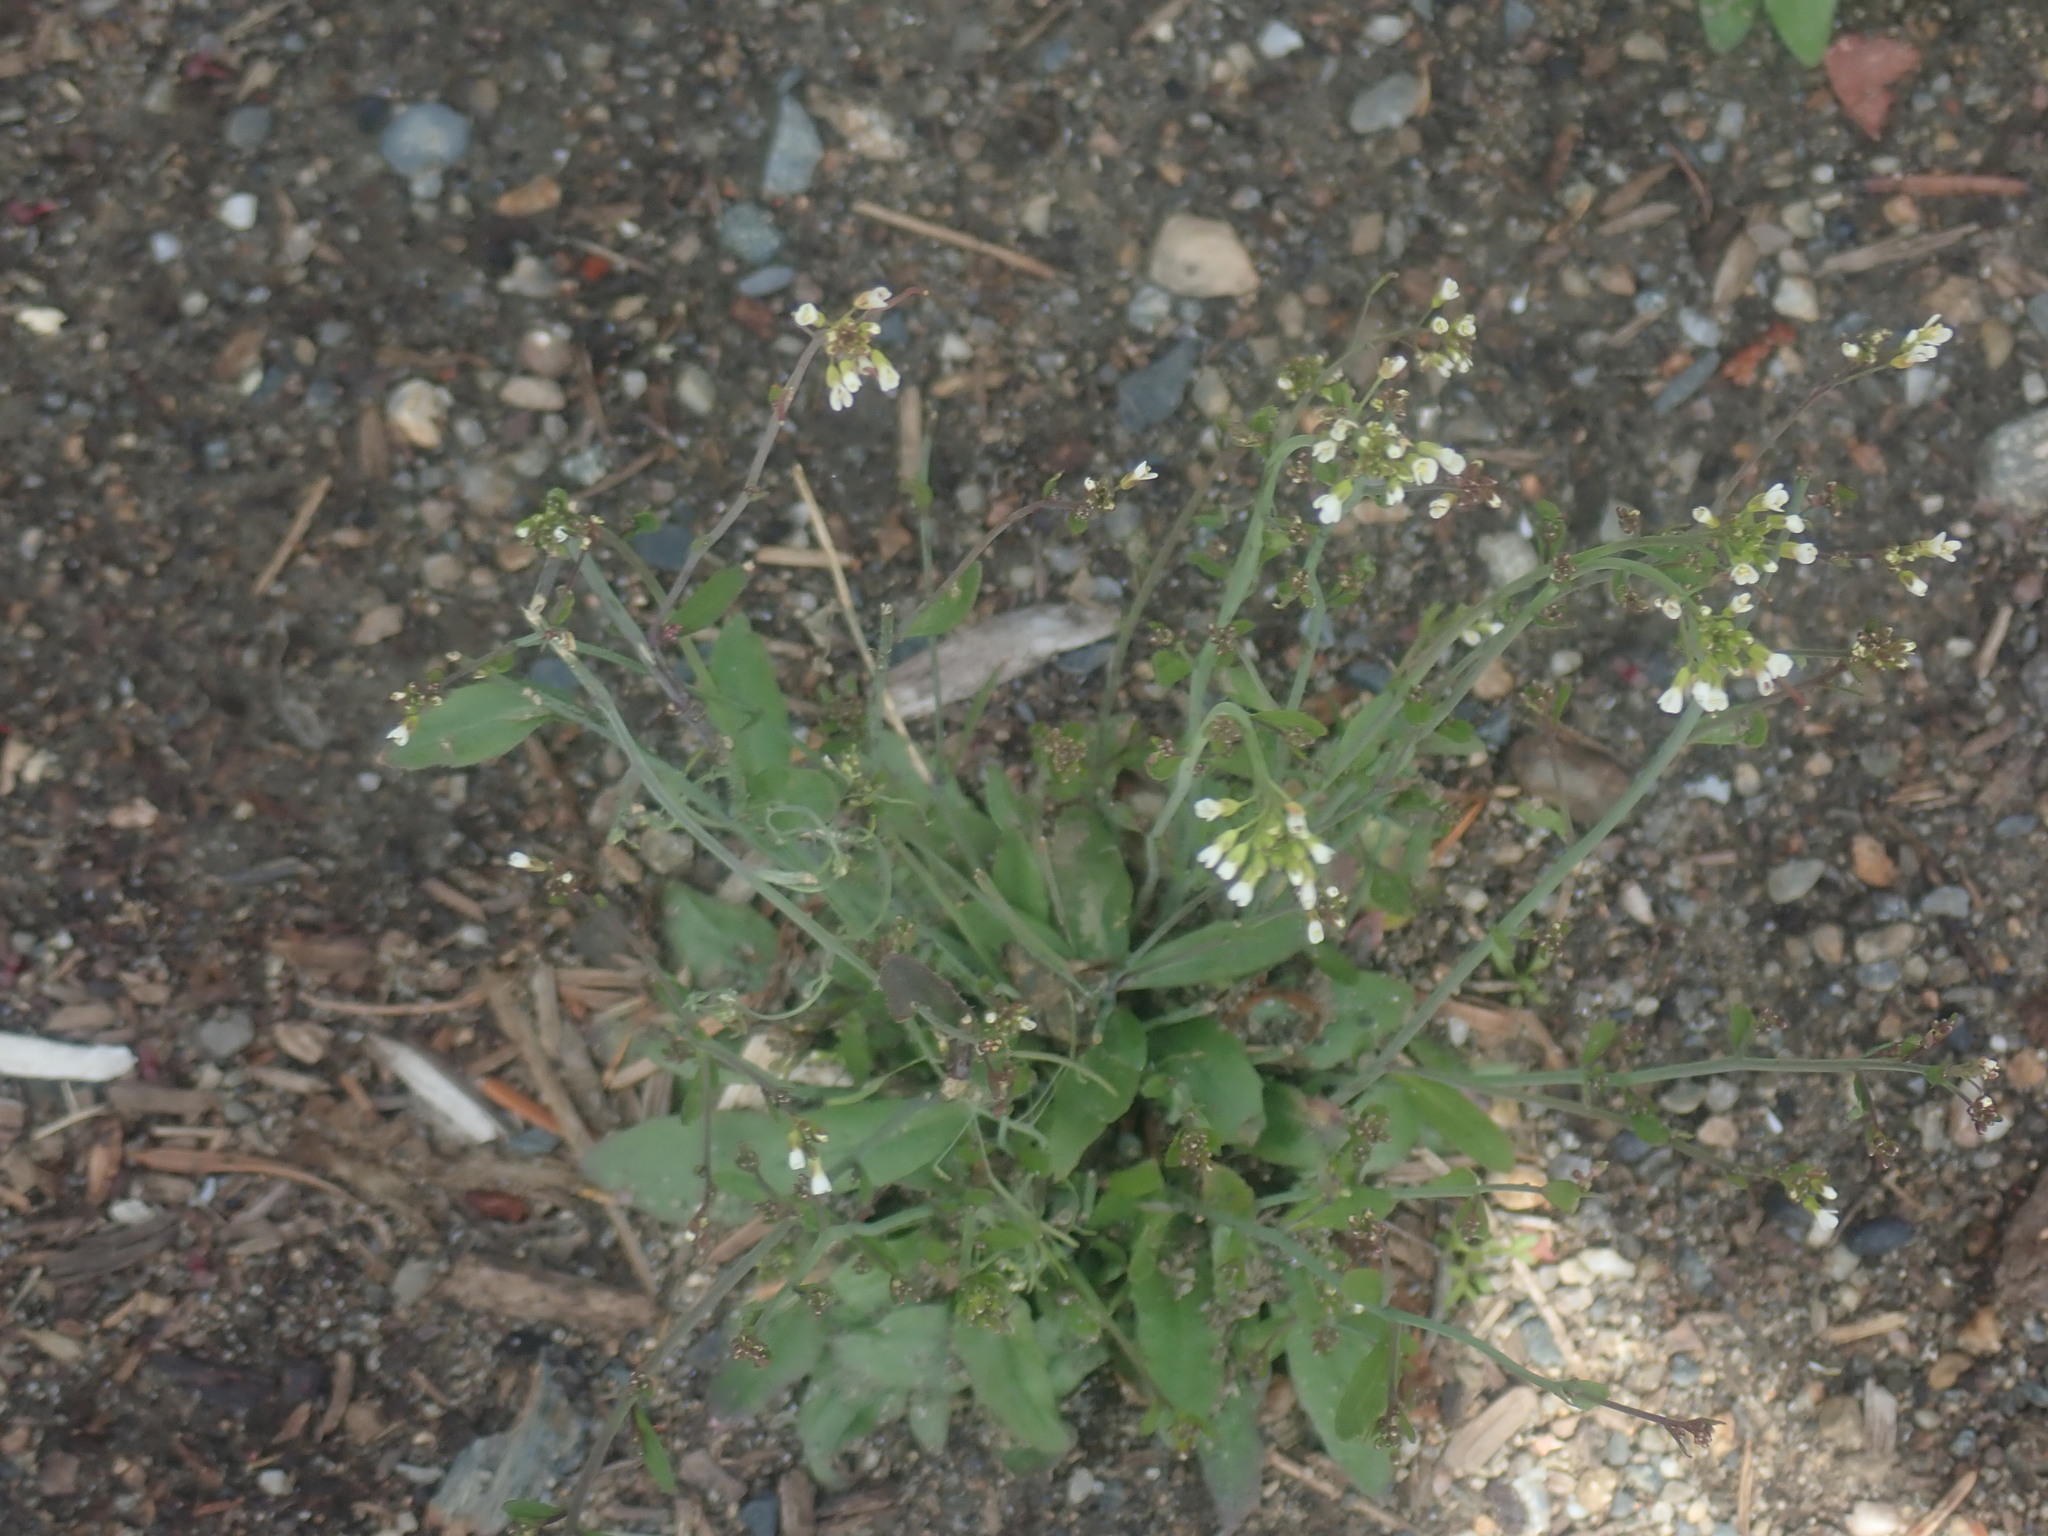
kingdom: Plantae
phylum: Tracheophyta
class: Magnoliopsida
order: Brassicales
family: Brassicaceae
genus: Arabidopsis
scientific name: Arabidopsis thaliana
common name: Thale cress
